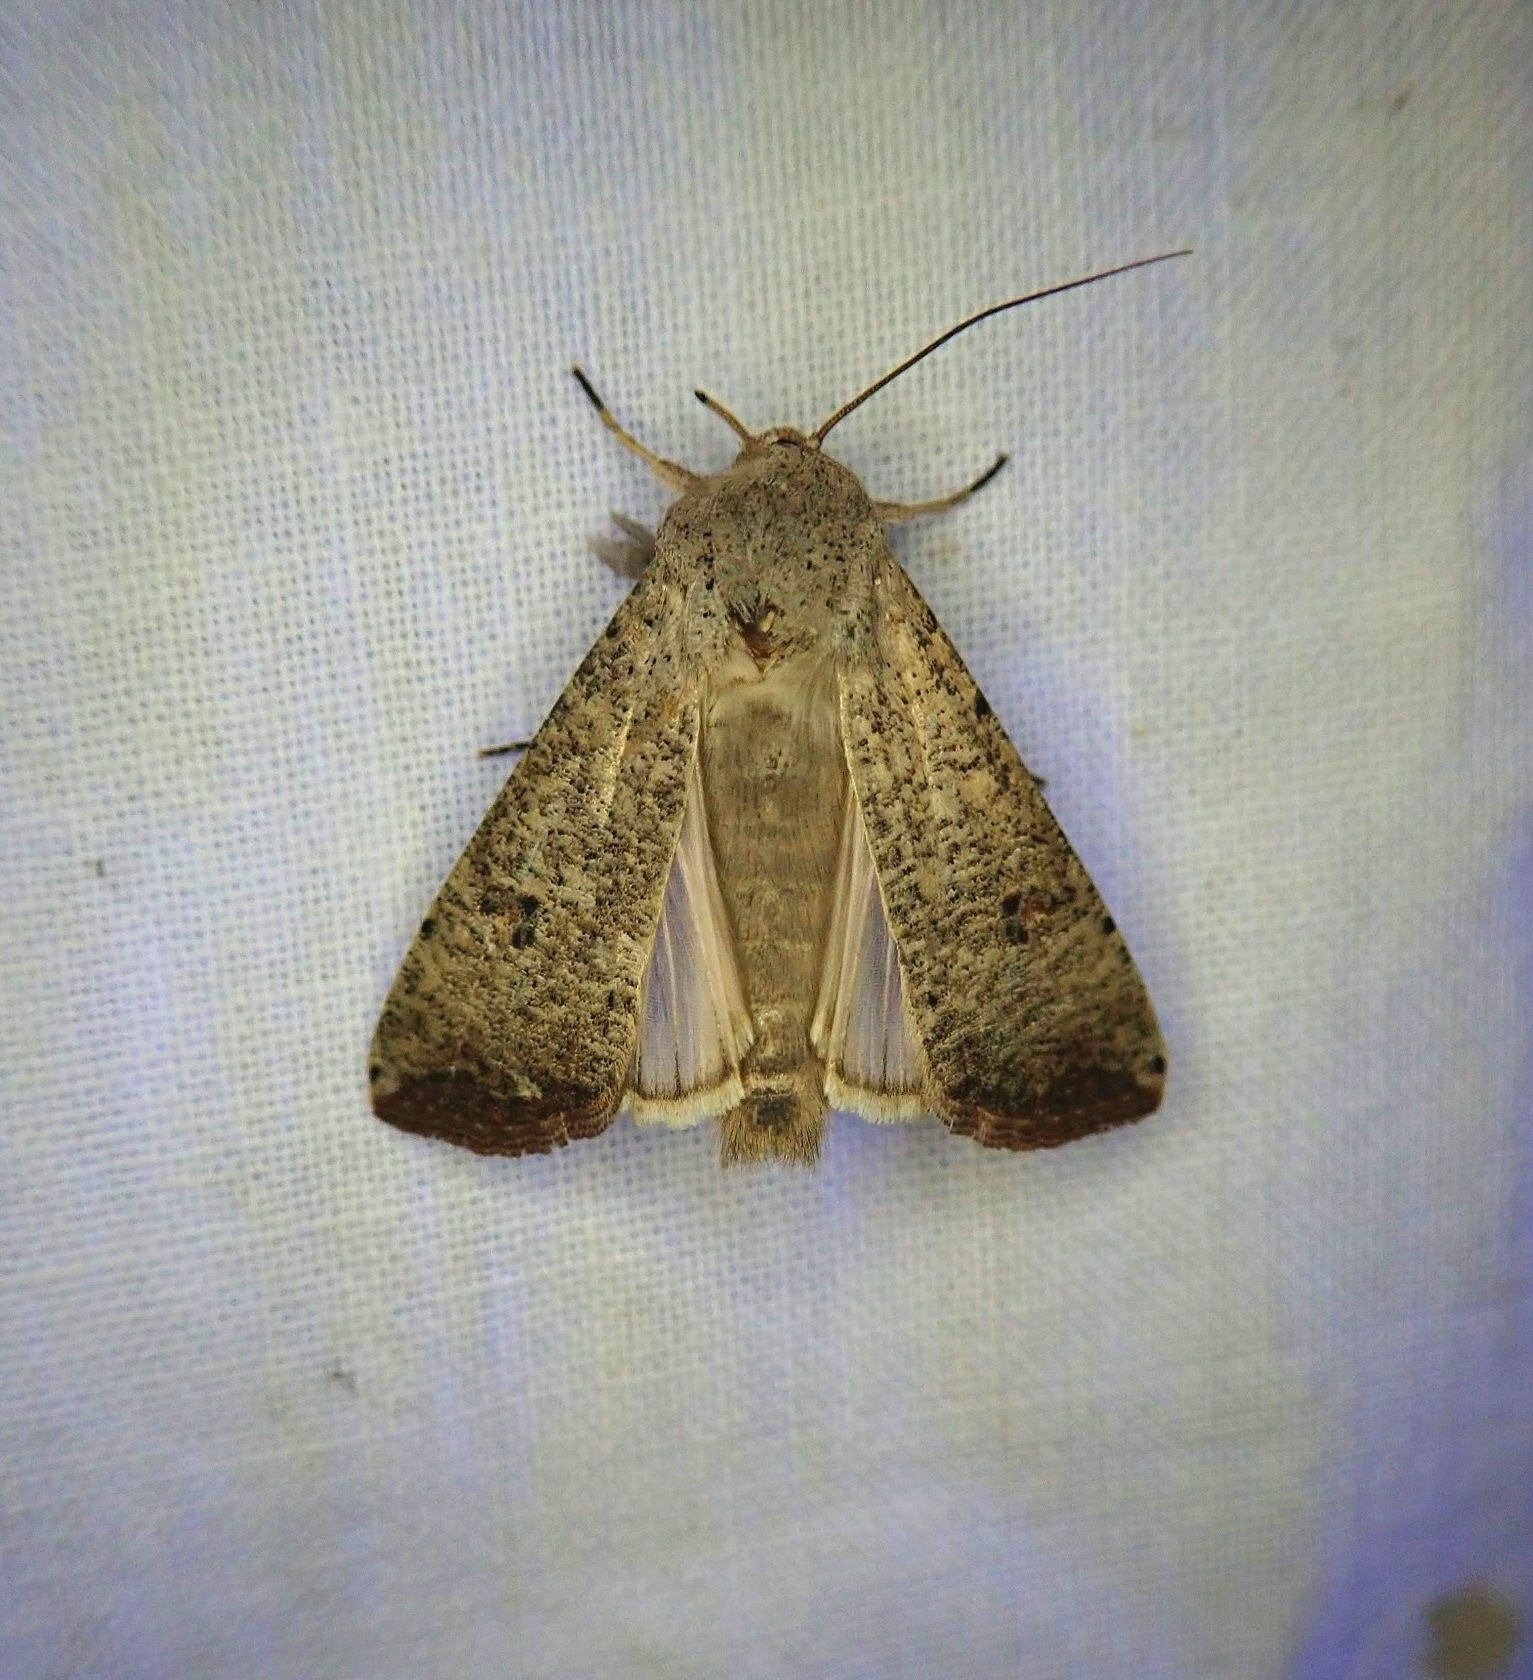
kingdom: Animalia
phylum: Arthropoda
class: Insecta
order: Lepidoptera
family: Noctuidae
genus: Anicla
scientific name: Anicla infecta
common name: Green cutworm
